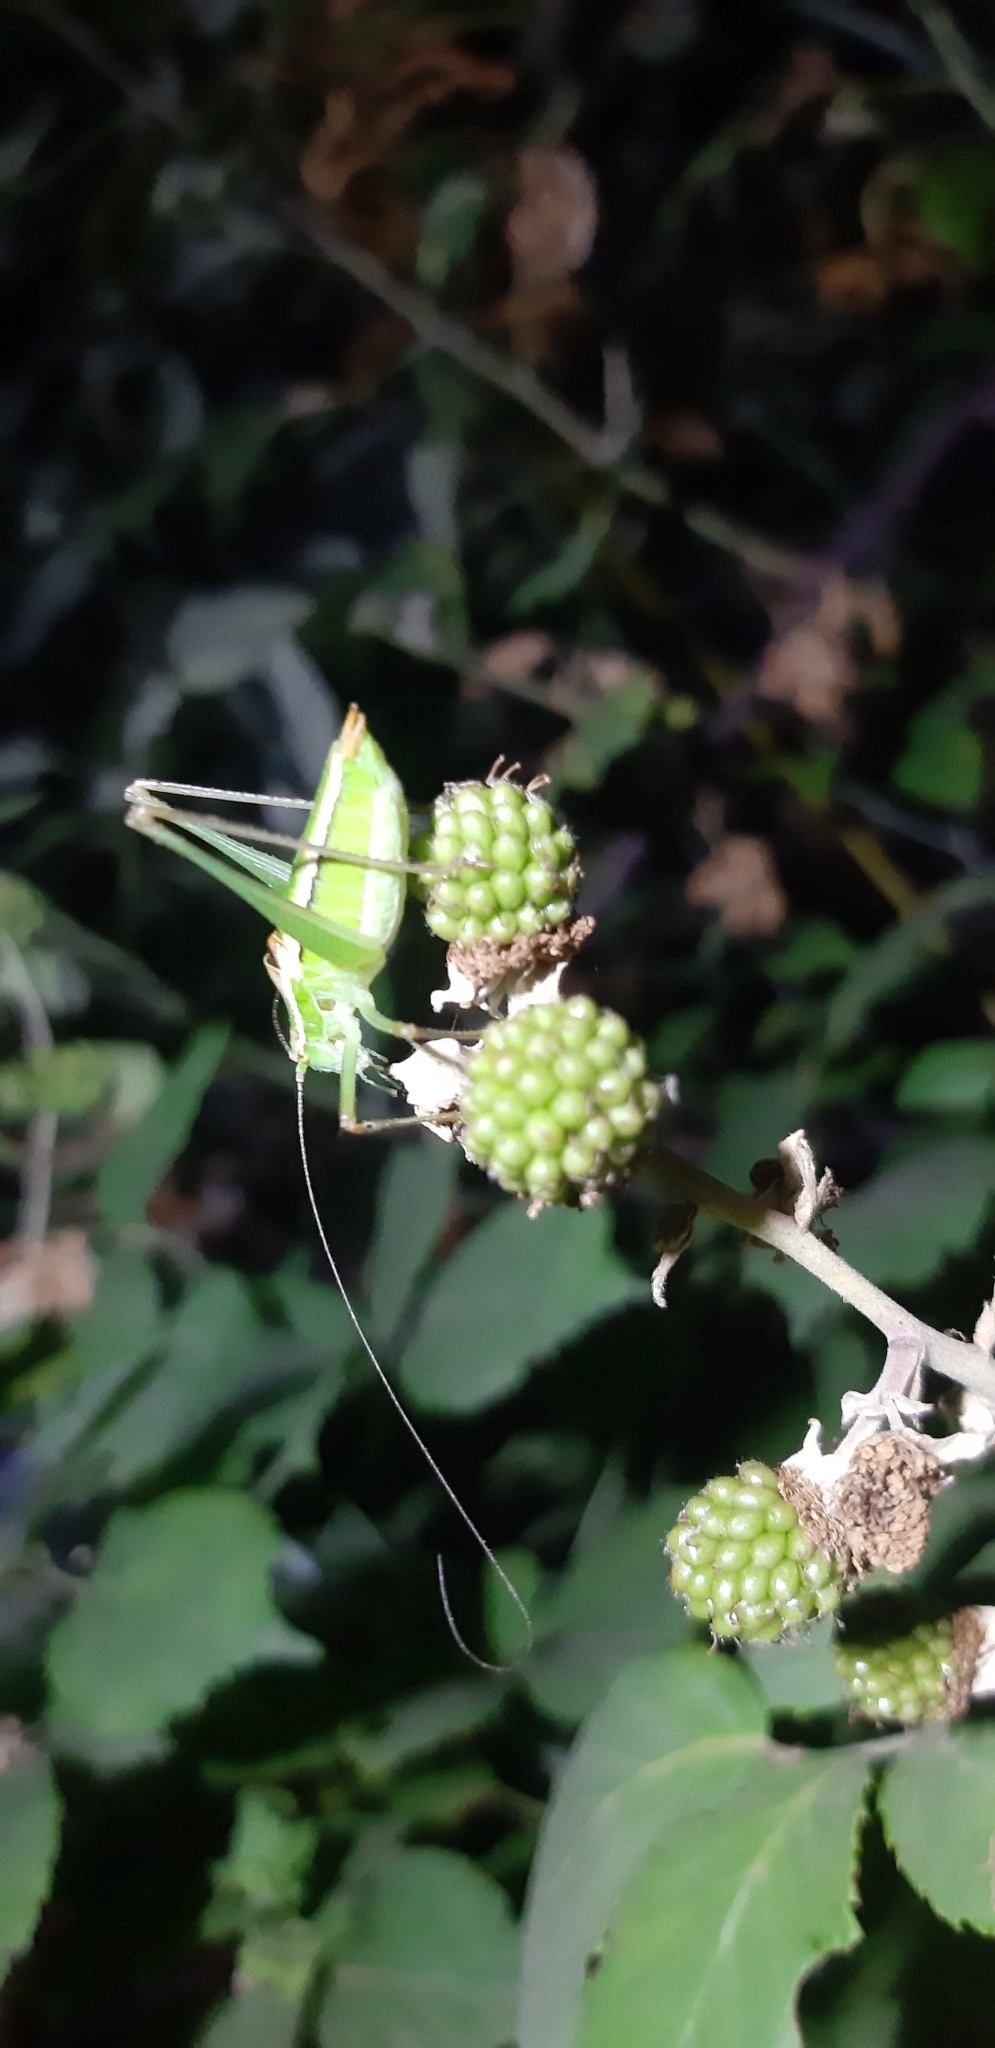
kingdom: Animalia
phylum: Arthropoda
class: Insecta
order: Orthoptera
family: Tettigoniidae
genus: Poecilimon
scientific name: Poecilimon superbus
